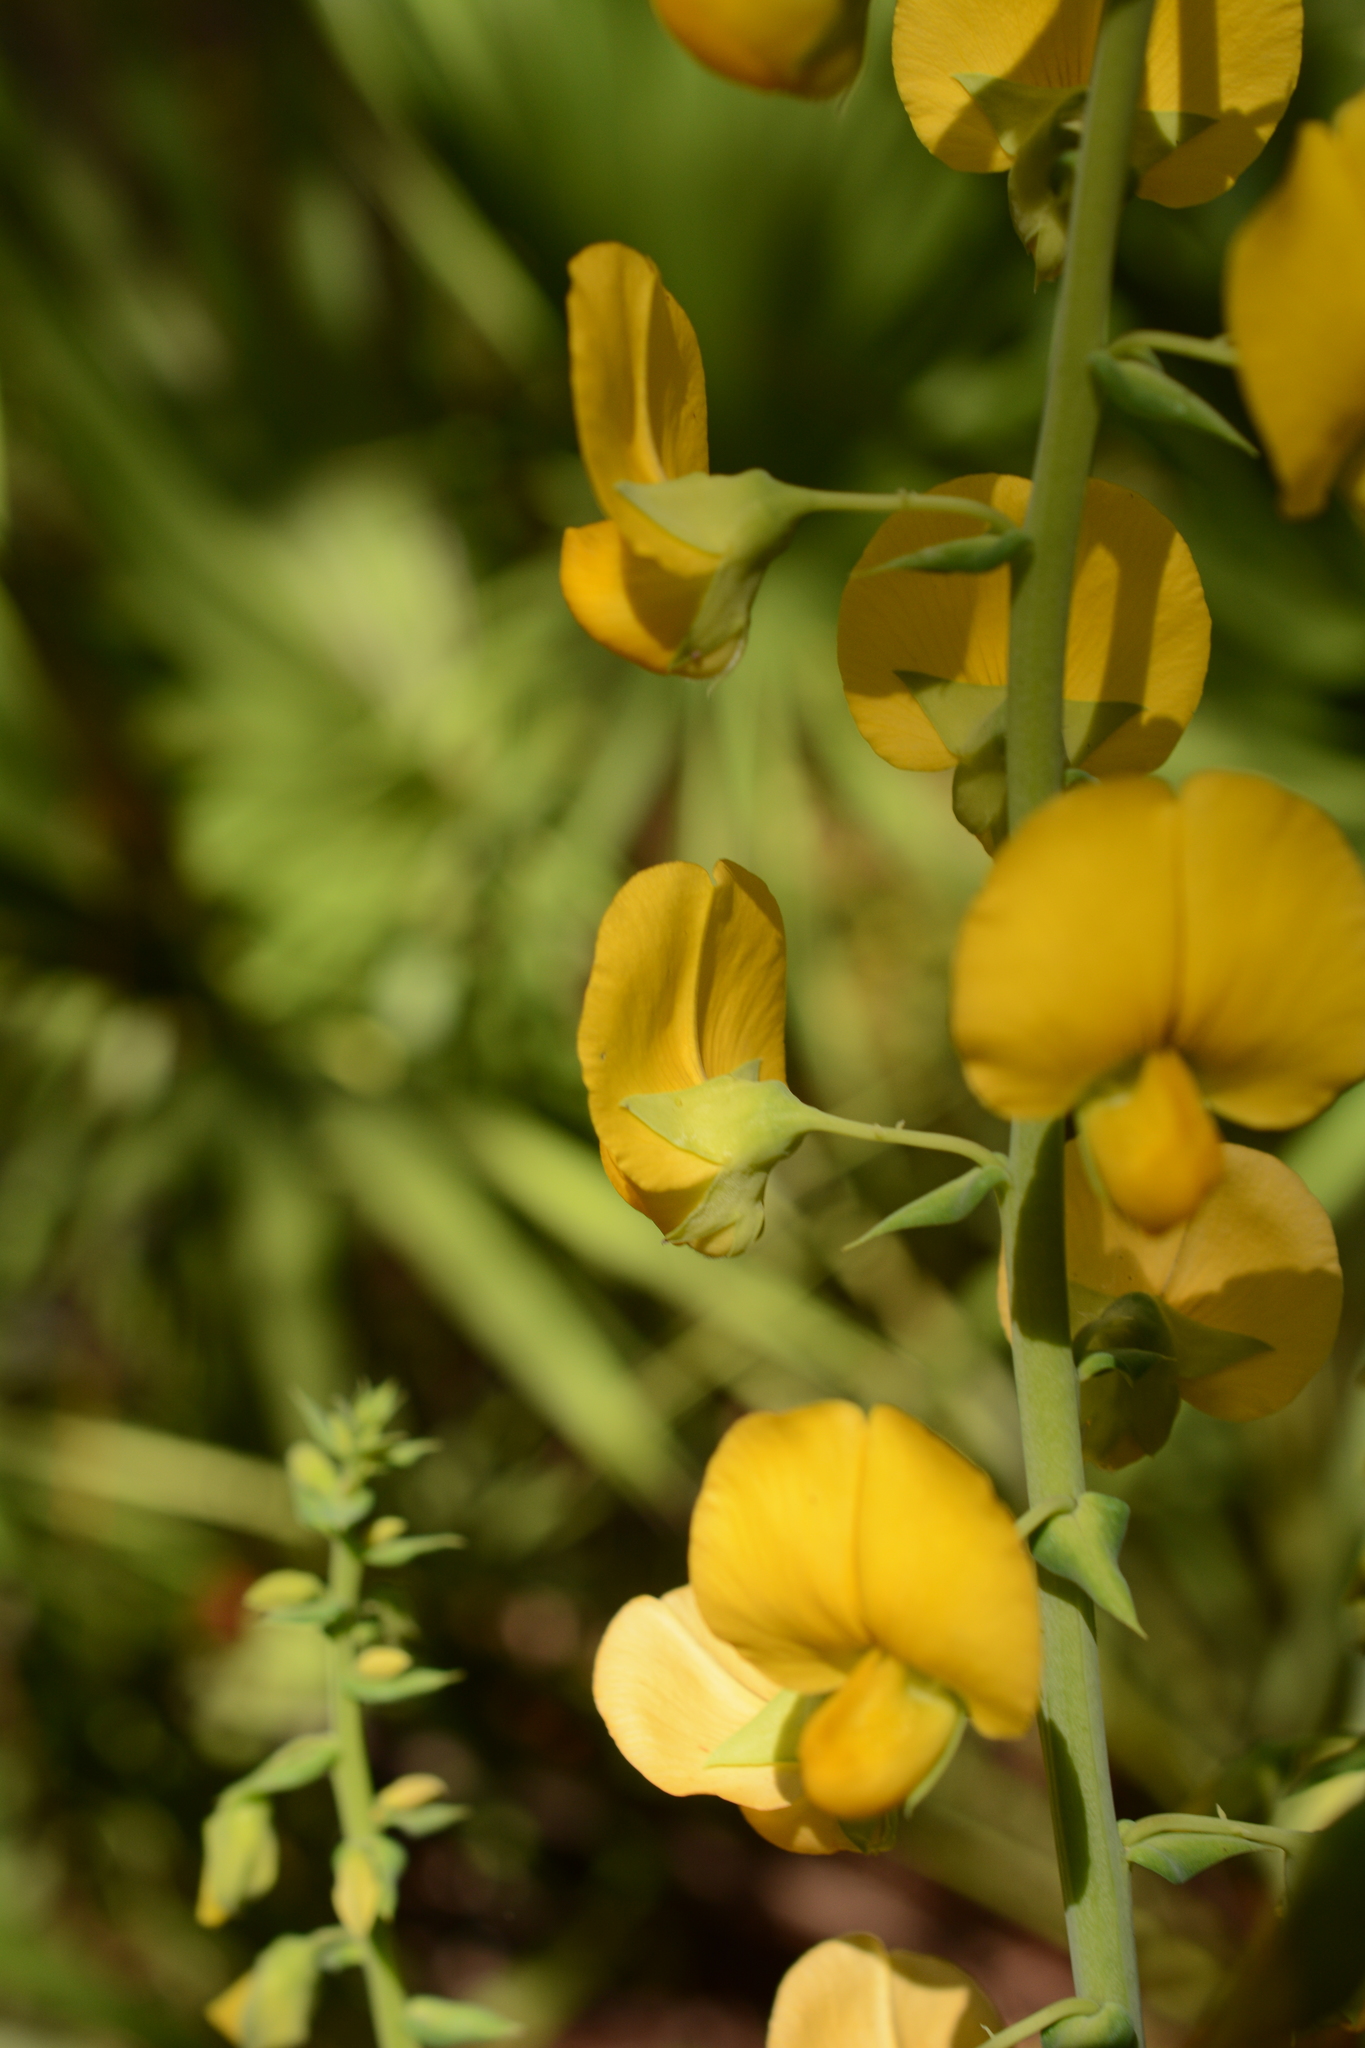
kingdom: Plantae
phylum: Tracheophyta
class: Magnoliopsida
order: Fabales
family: Fabaceae
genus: Crotalaria
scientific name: Crotalaria spectabilis
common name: Showy rattlebox
